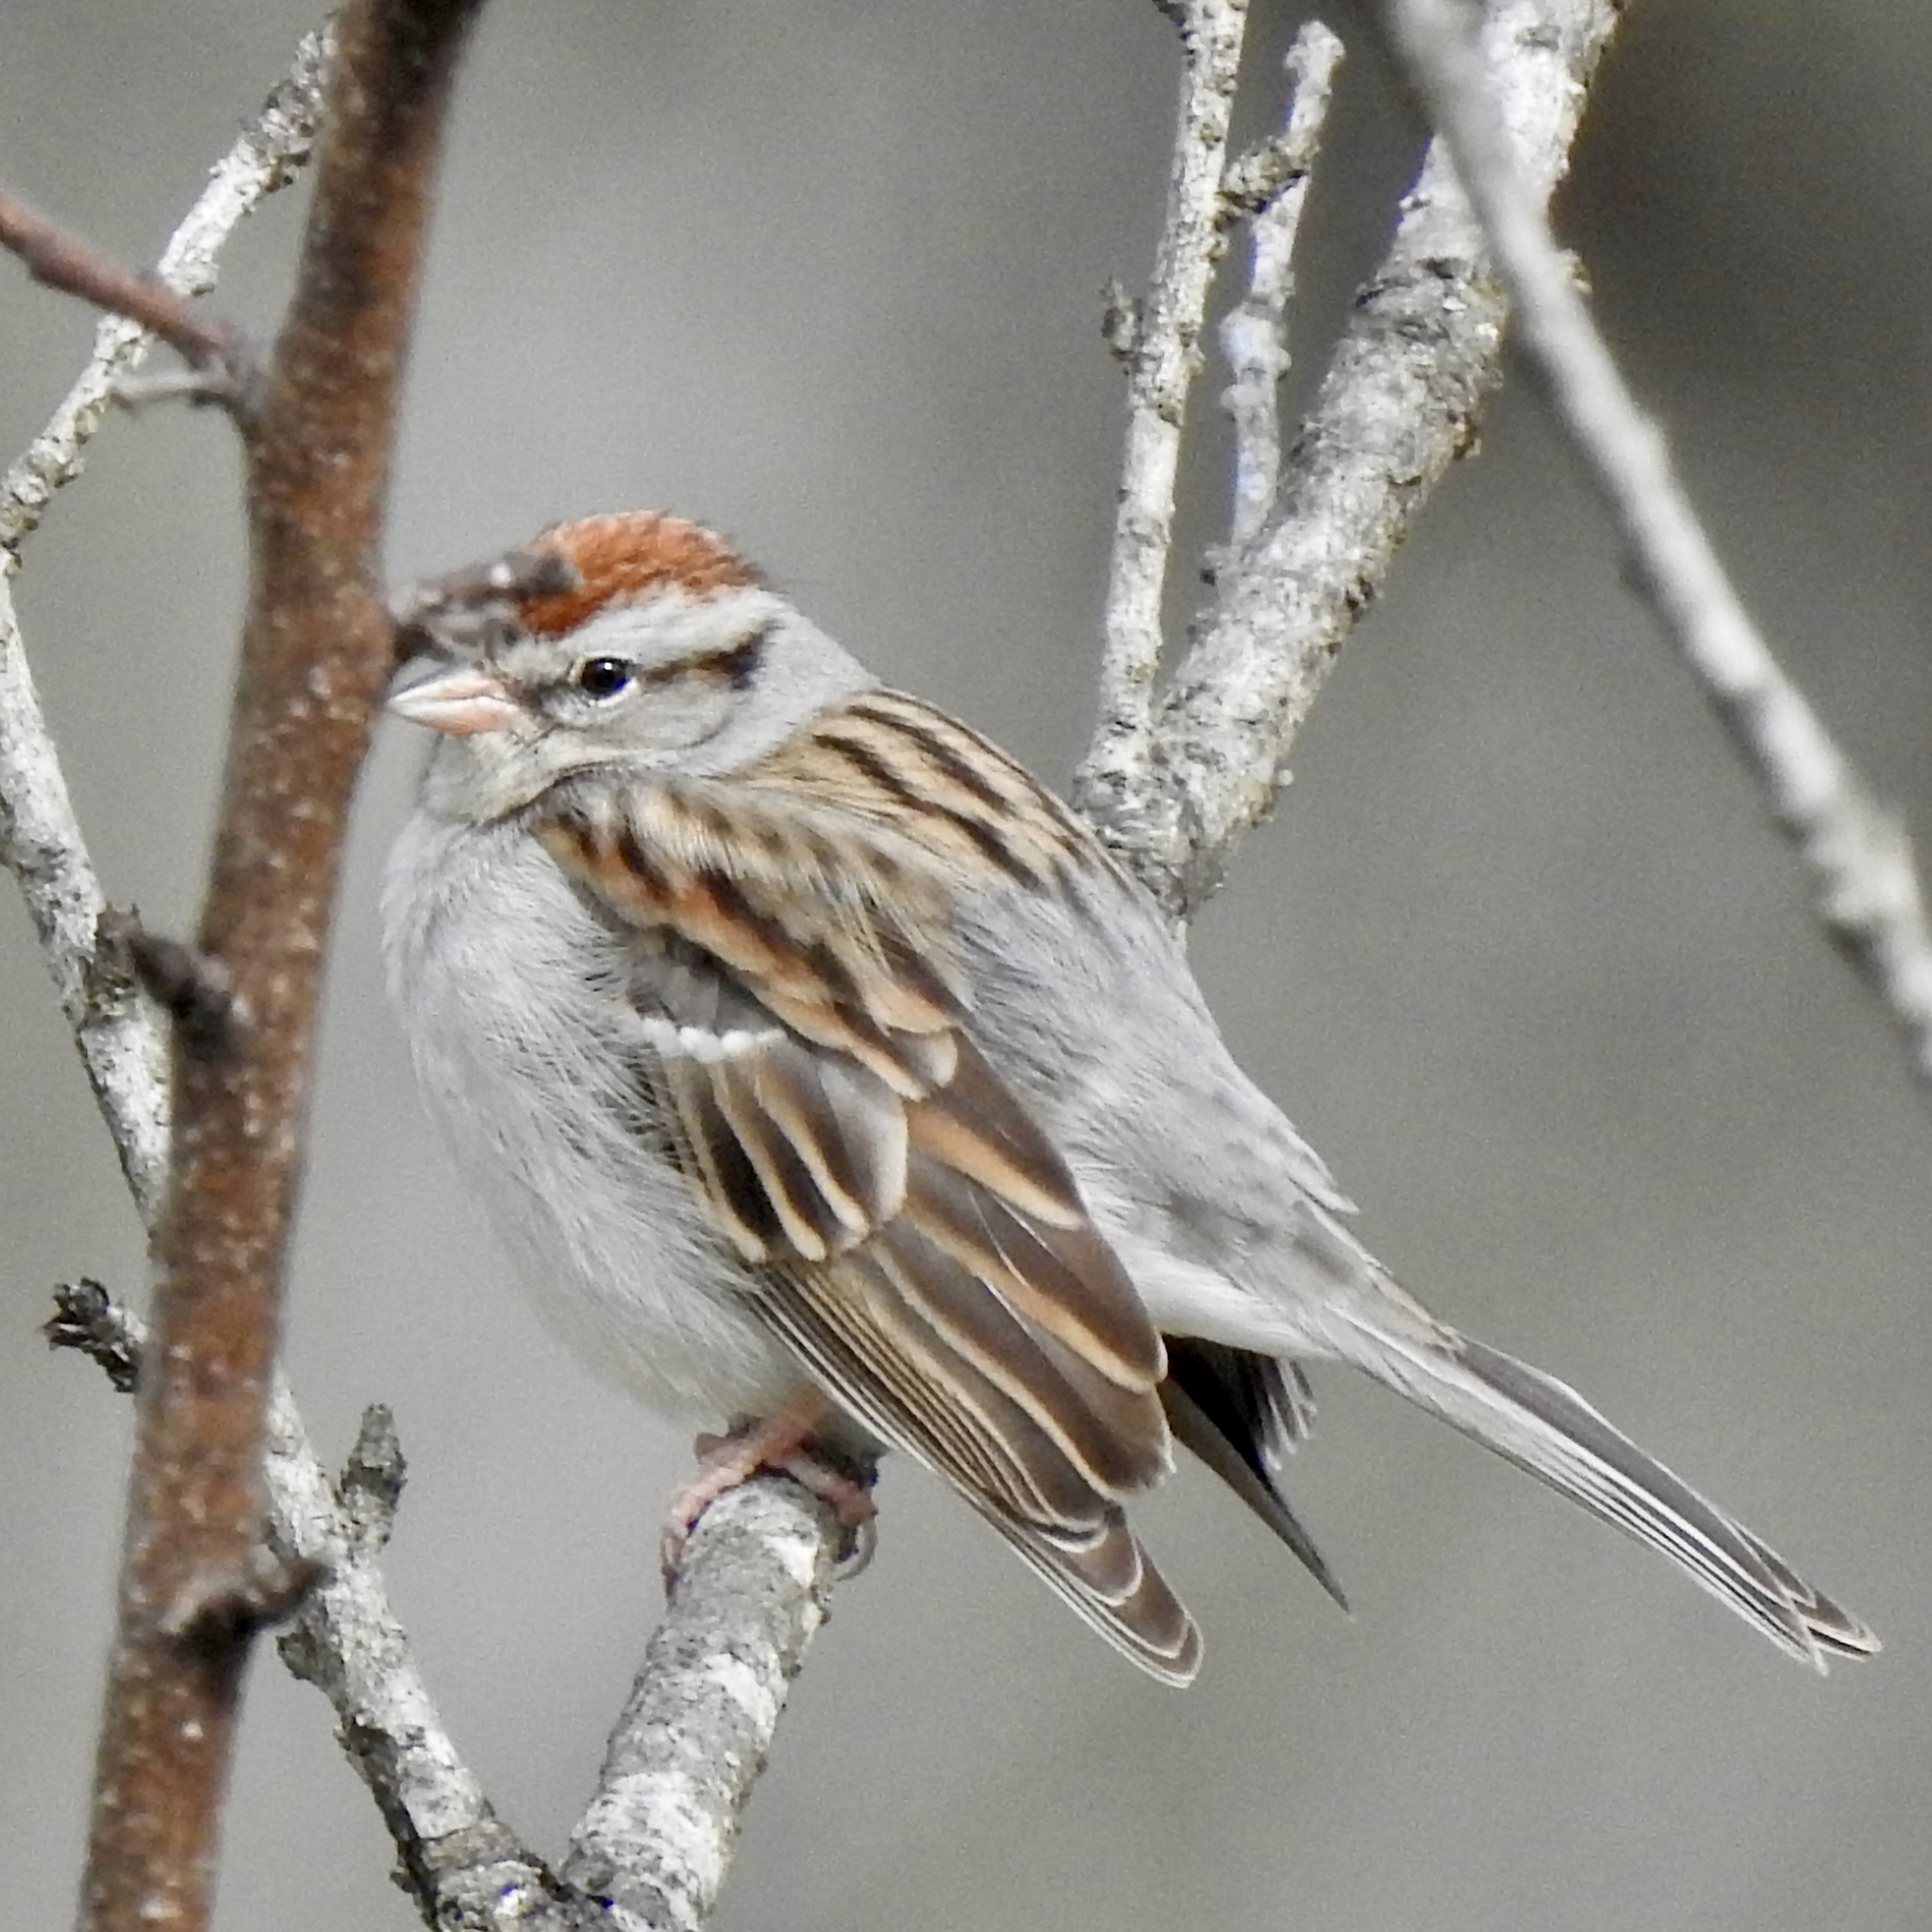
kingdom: Animalia
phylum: Chordata
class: Aves
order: Passeriformes
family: Passerellidae
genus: Spizella
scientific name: Spizella passerina
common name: Chipping sparrow
